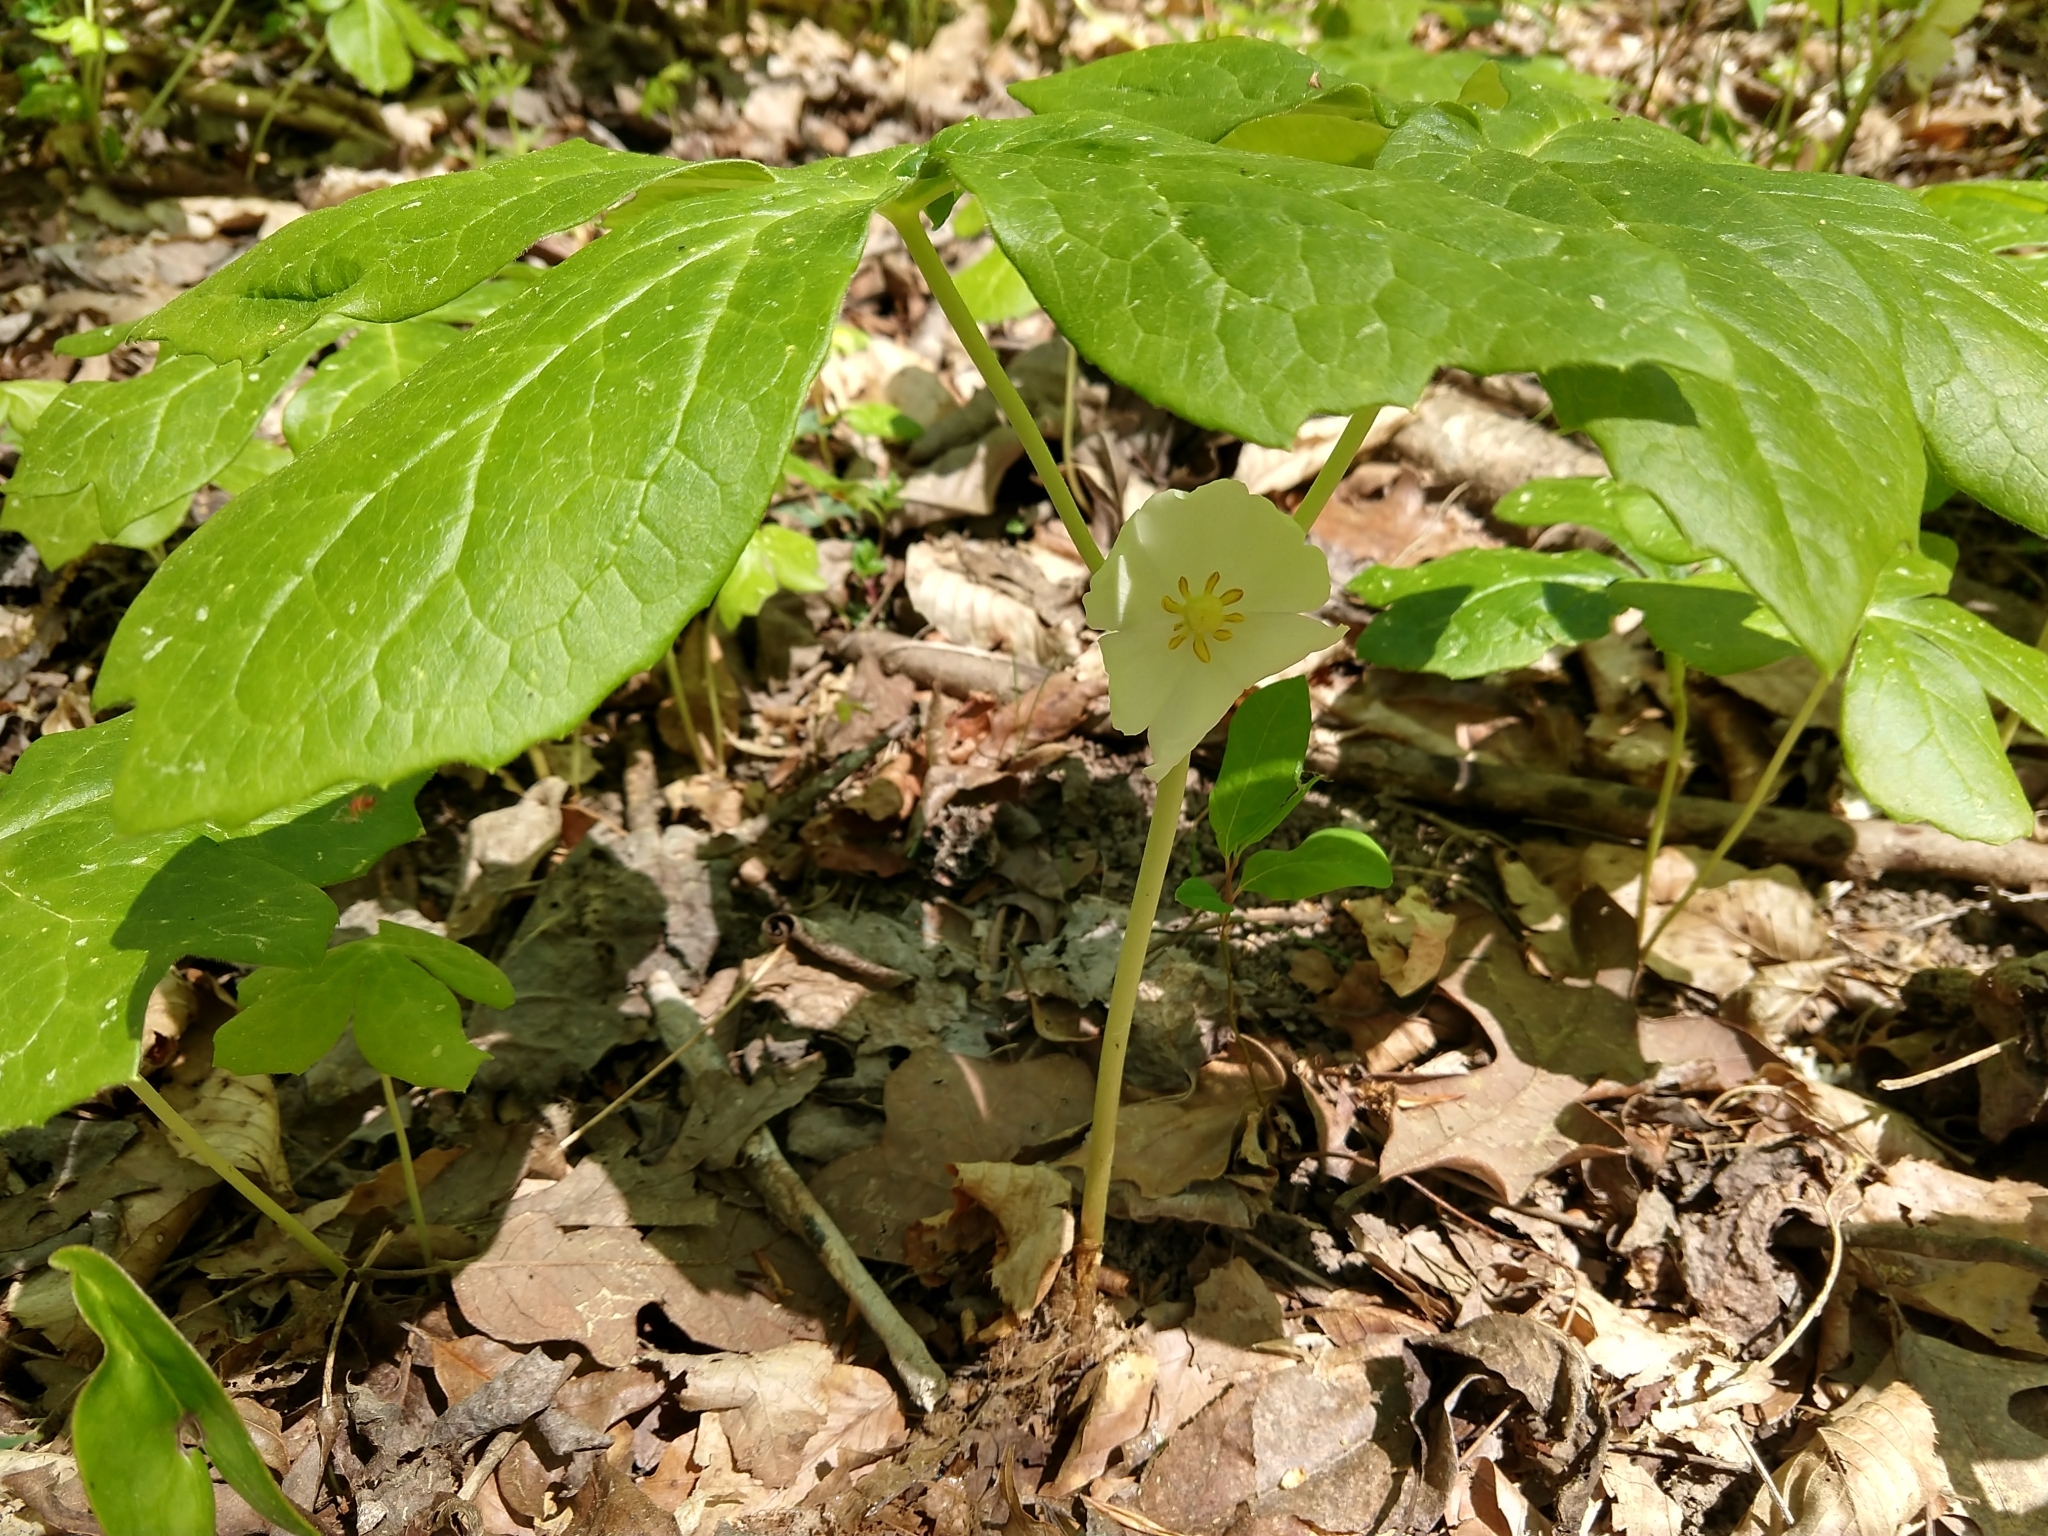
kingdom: Plantae
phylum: Tracheophyta
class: Magnoliopsida
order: Ranunculales
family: Berberidaceae
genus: Podophyllum
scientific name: Podophyllum peltatum
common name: Wild mandrake
